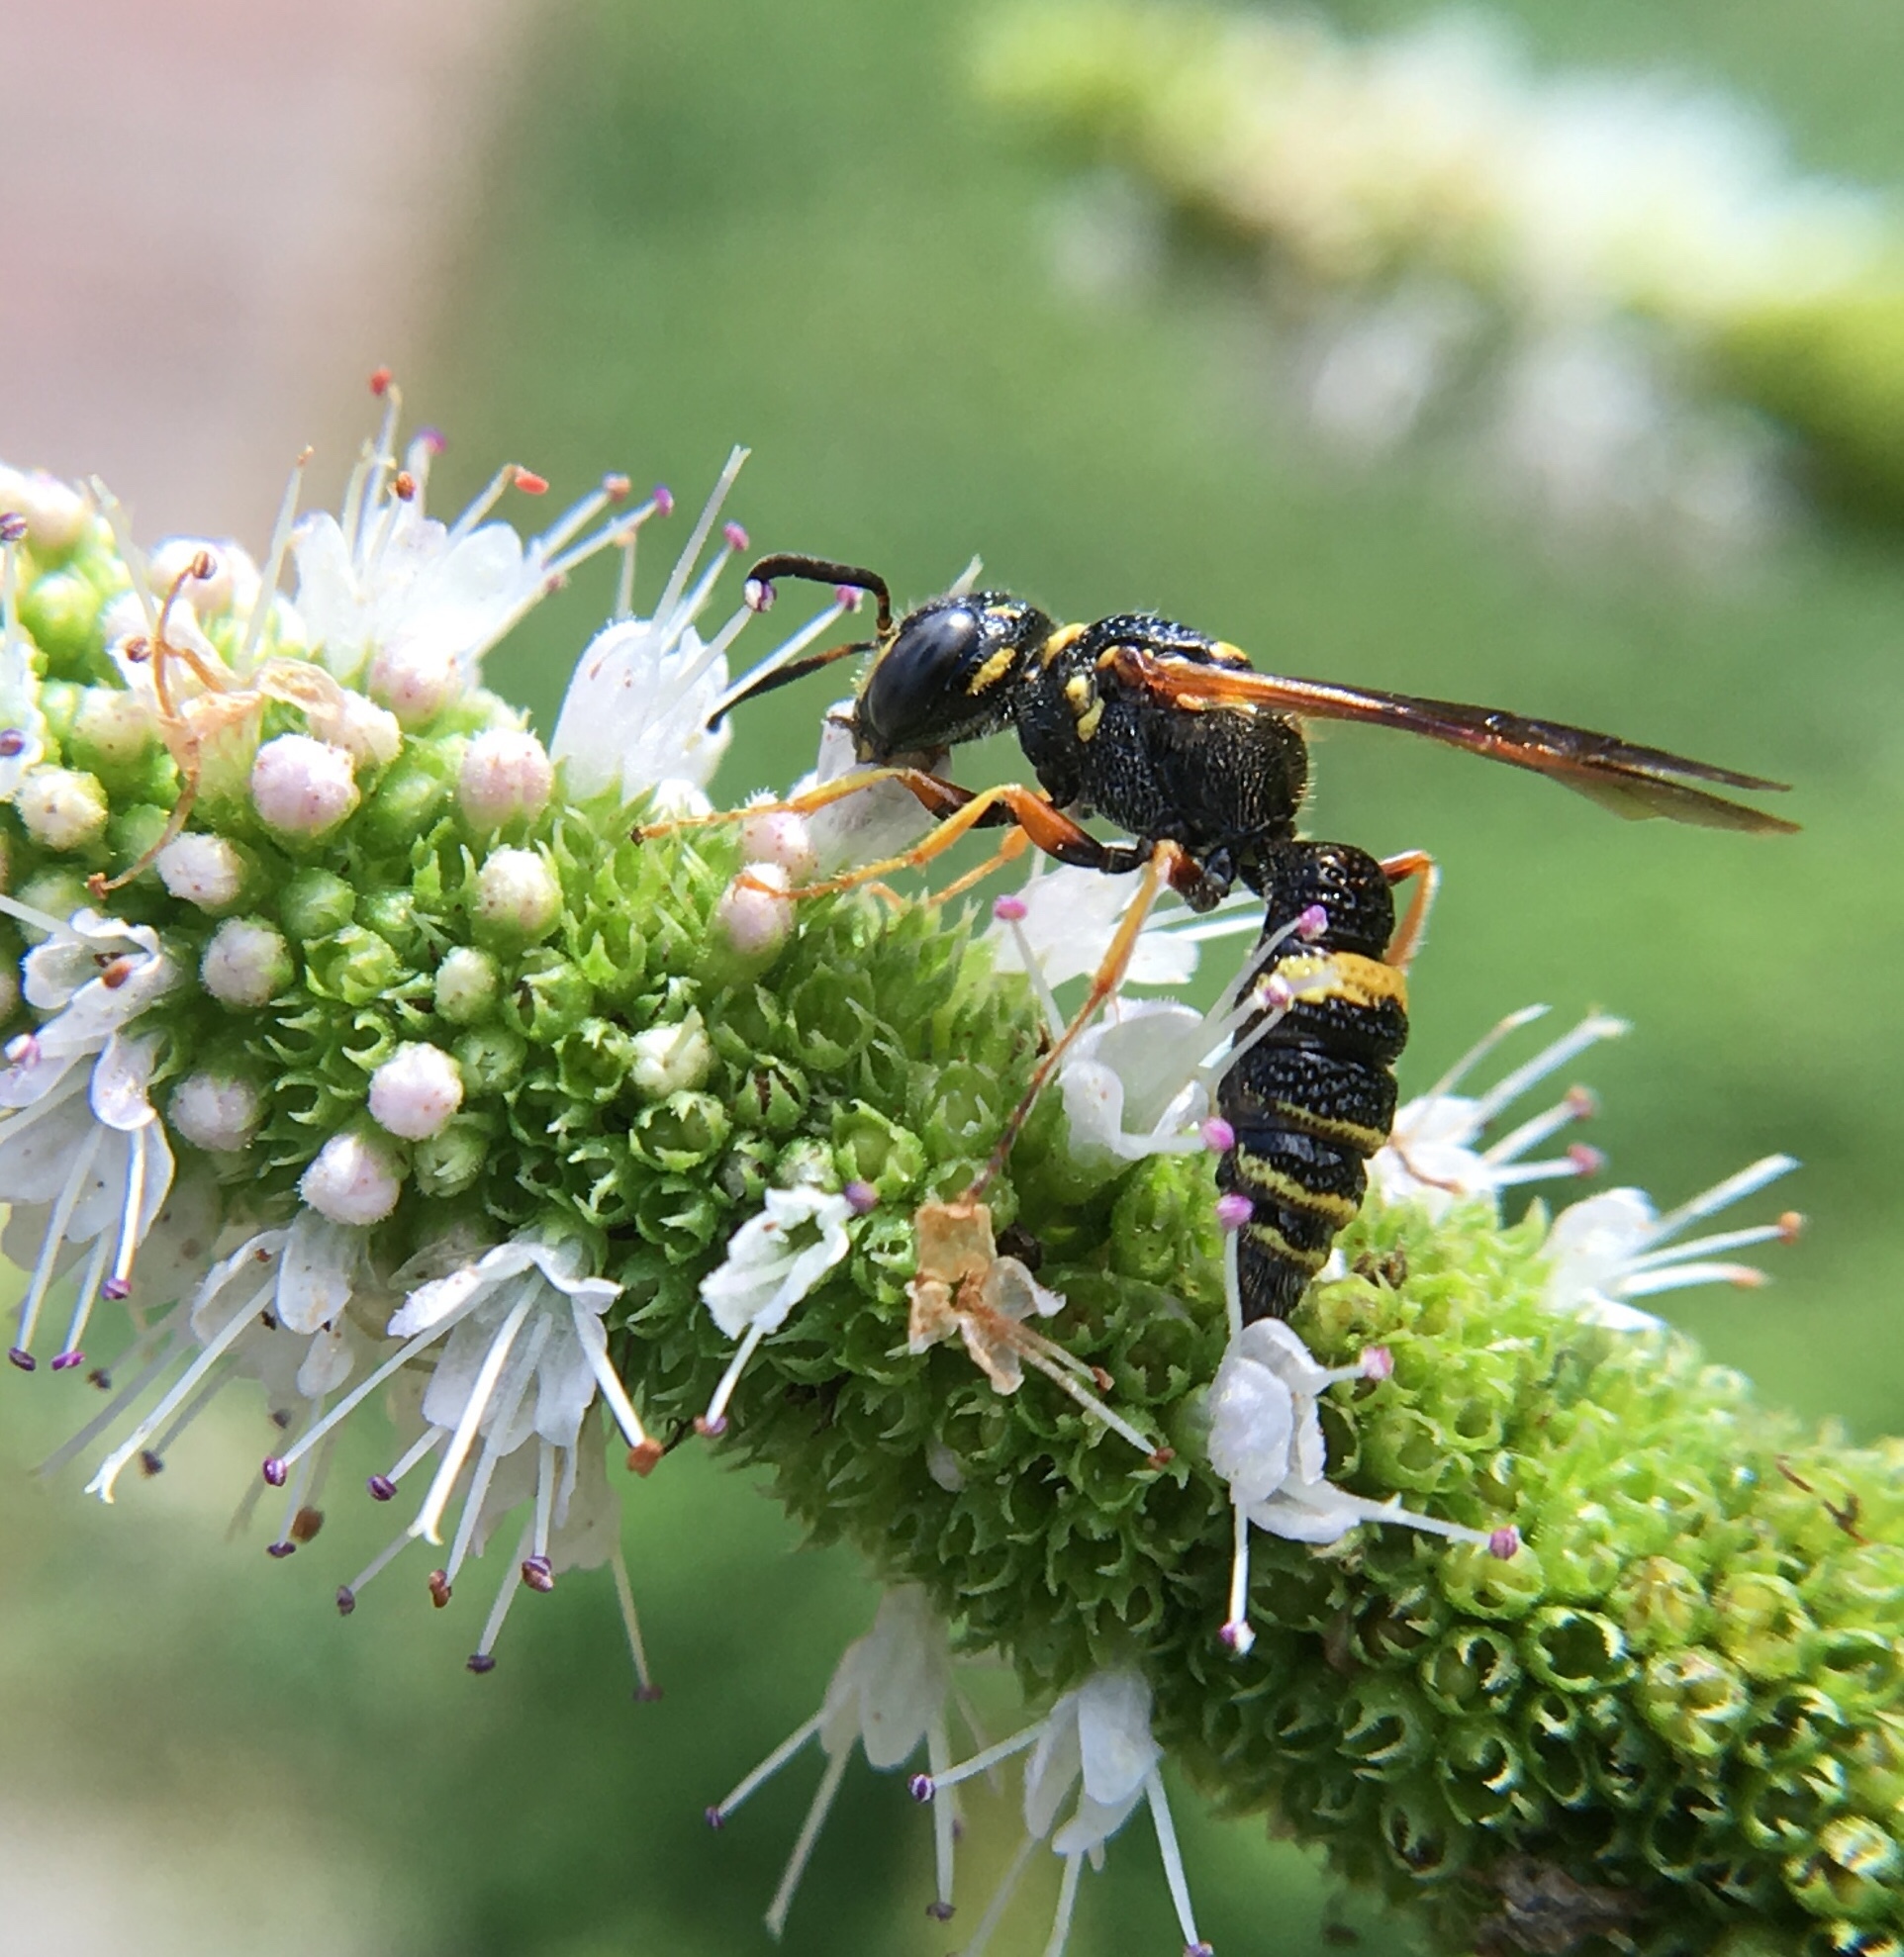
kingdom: Animalia
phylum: Arthropoda
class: Insecta
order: Hymenoptera
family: Crabronidae
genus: Philanthus
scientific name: Philanthus gibbosus
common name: Humped beewolf
